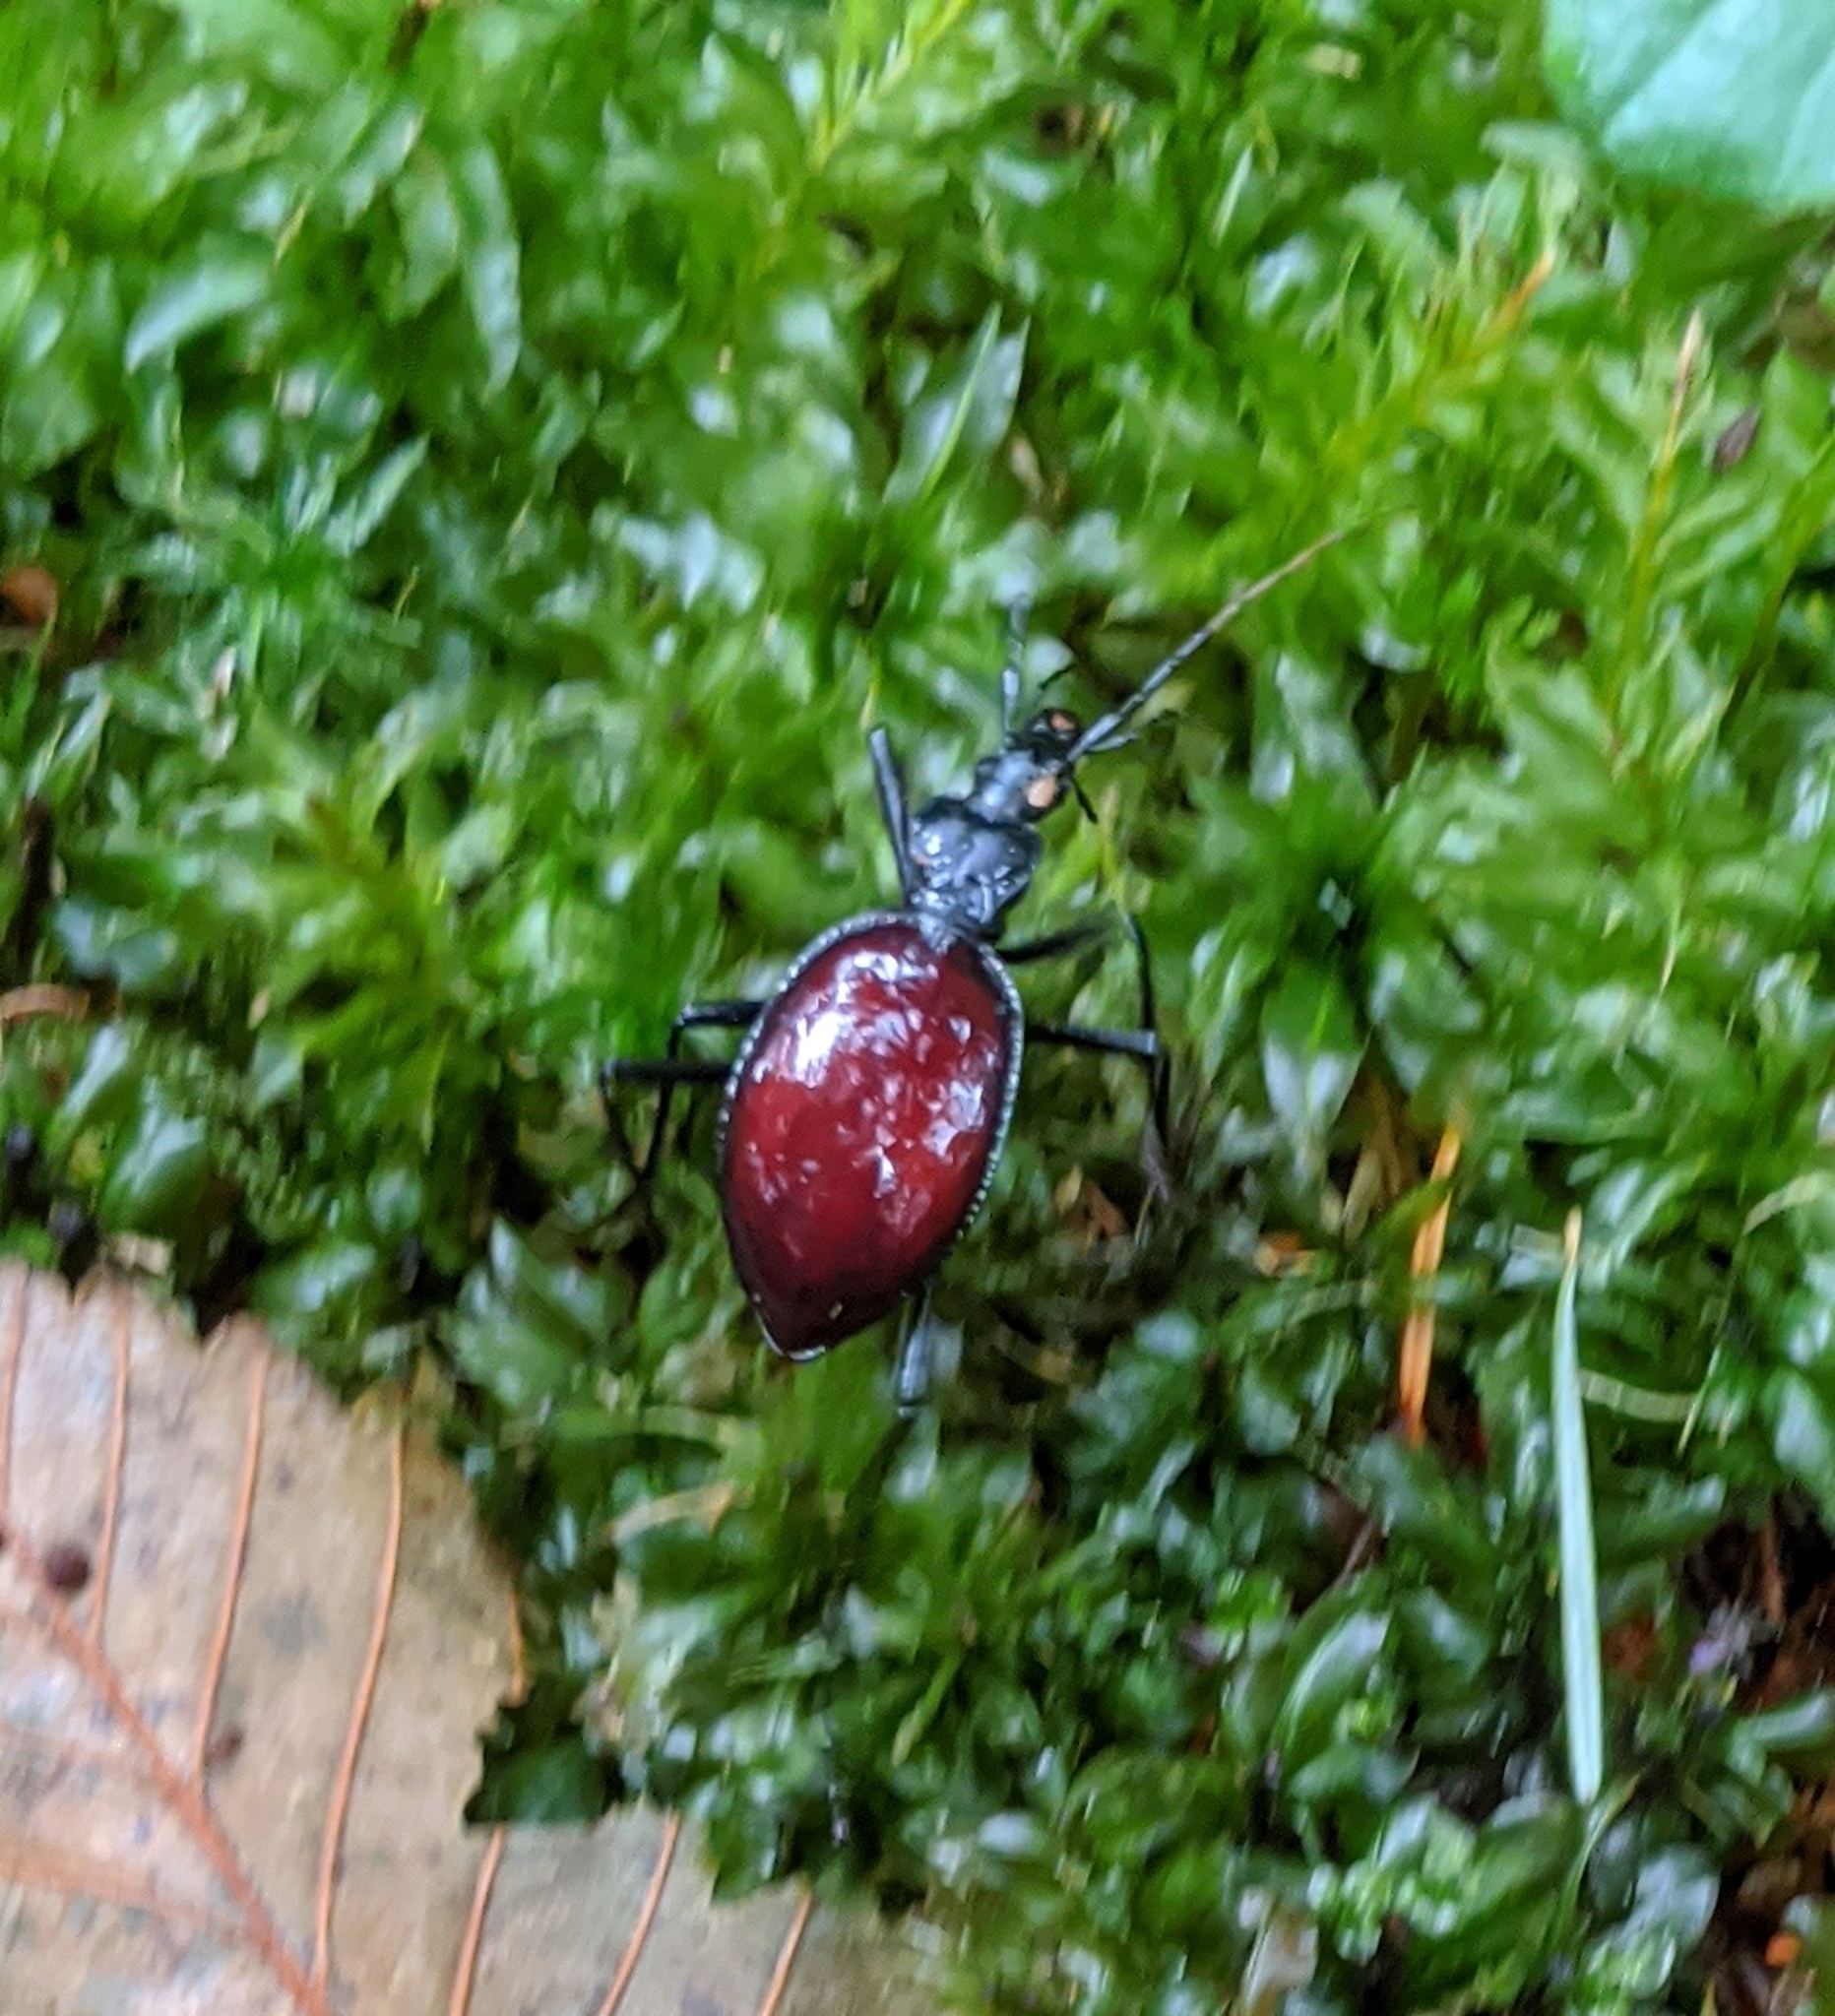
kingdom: Animalia
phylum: Arthropoda
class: Insecta
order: Coleoptera
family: Carabidae
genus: Scaphinotus
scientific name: Scaphinotus angusticollis
